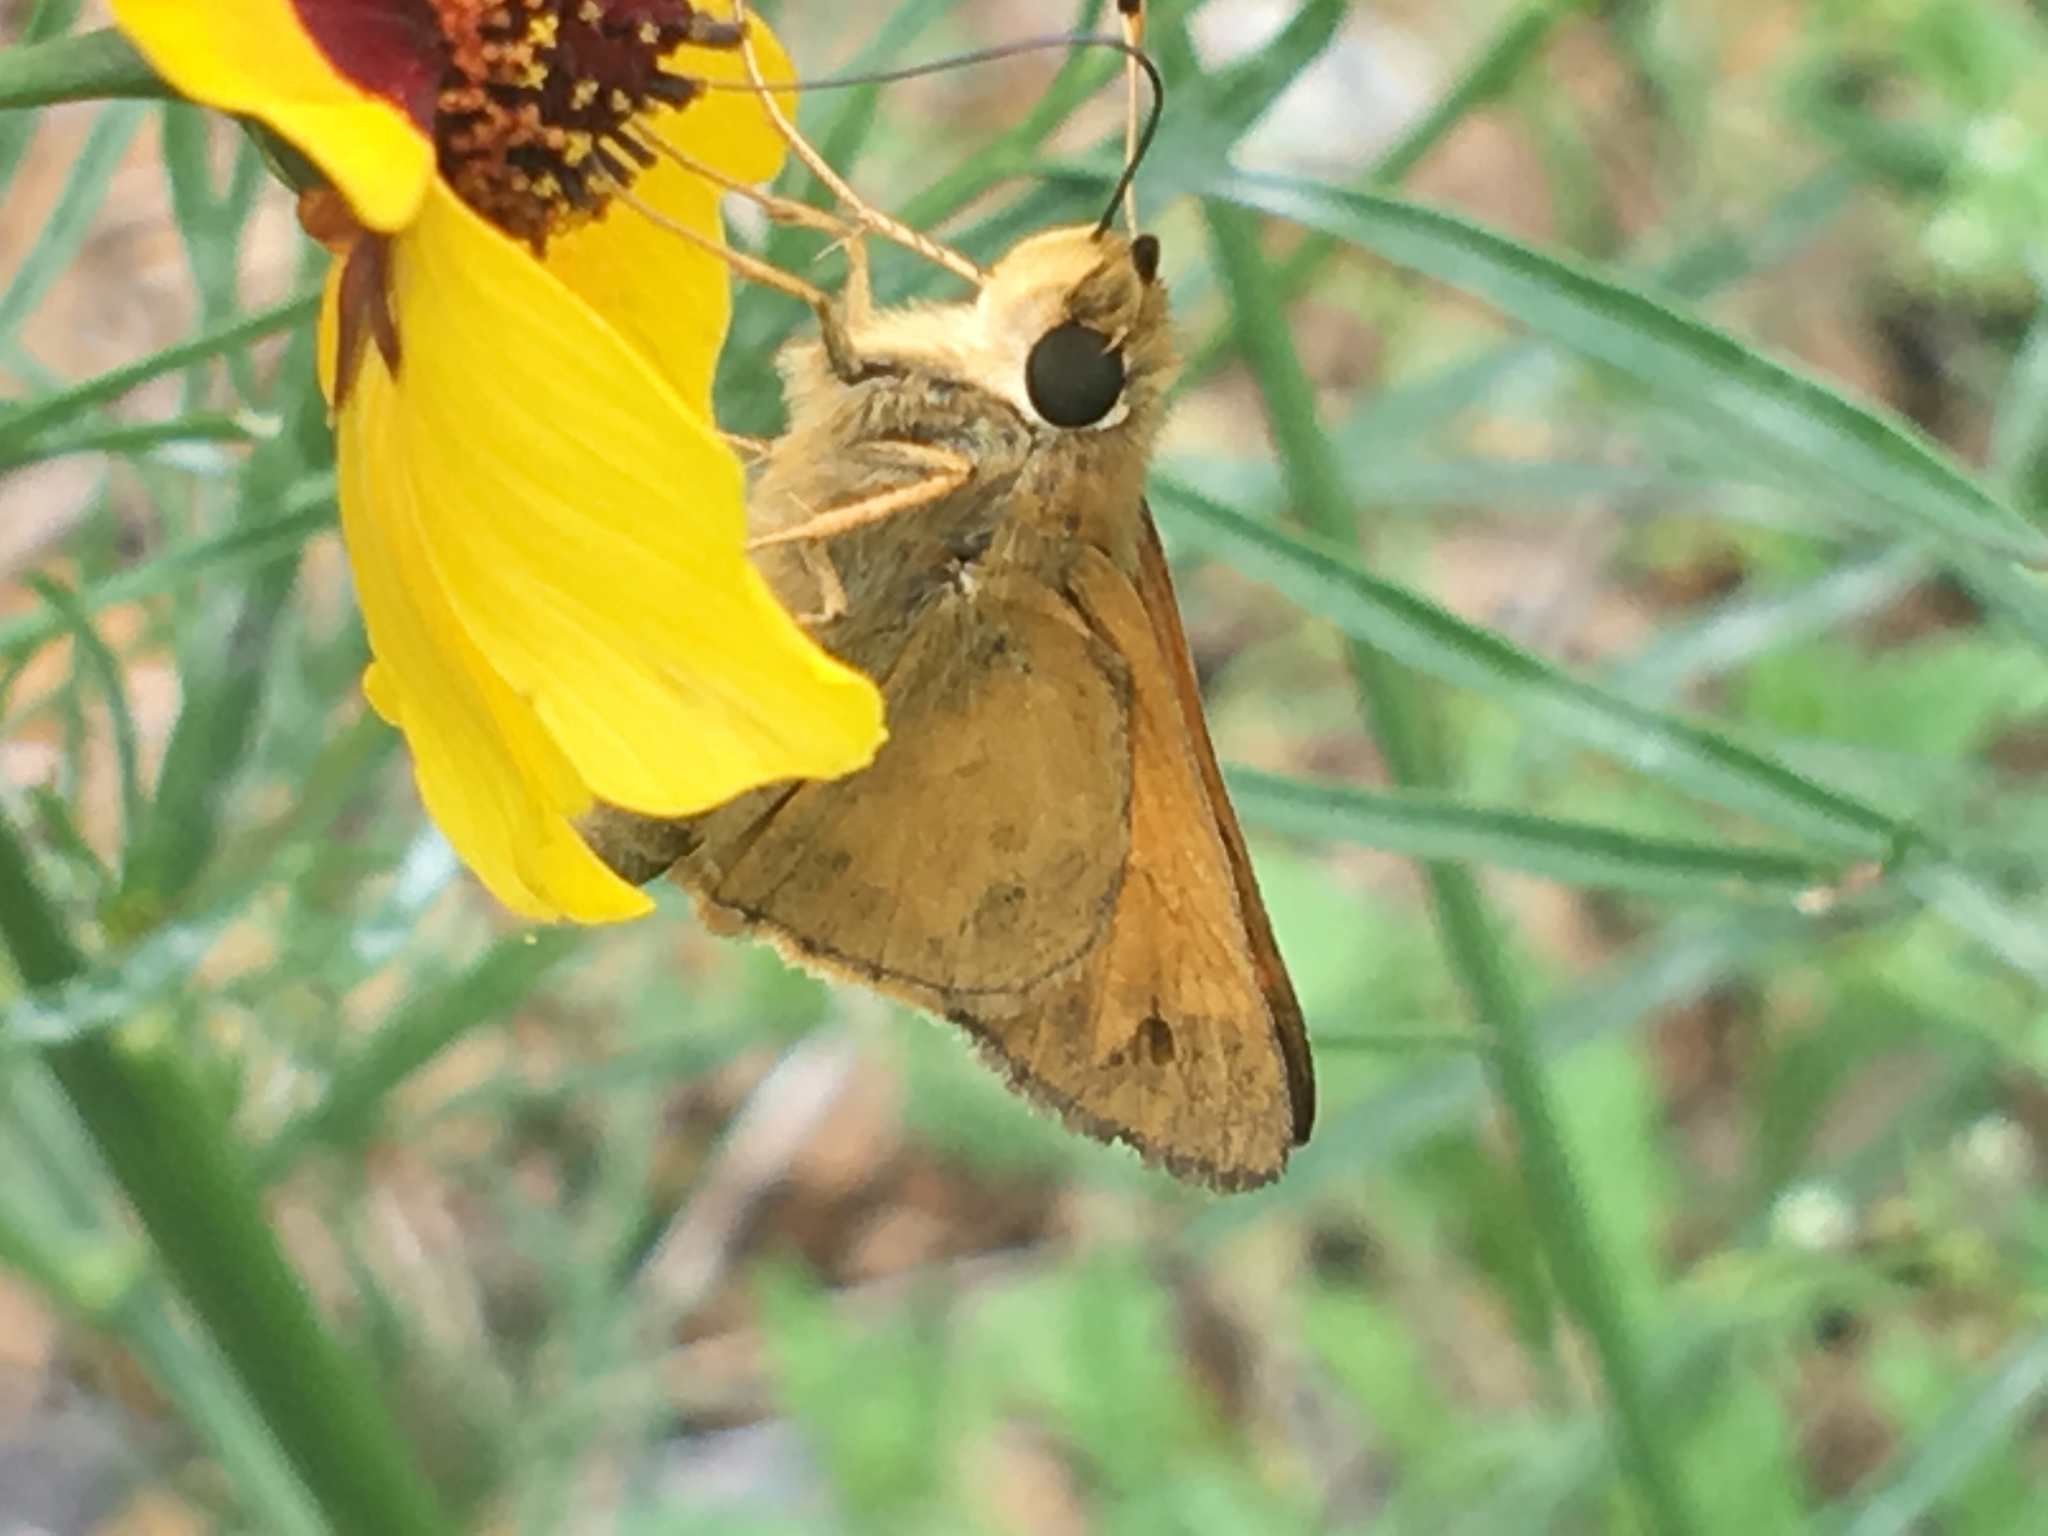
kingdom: Animalia
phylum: Arthropoda
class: Insecta
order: Lepidoptera
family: Hesperiidae
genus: Atalopedes
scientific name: Atalopedes
